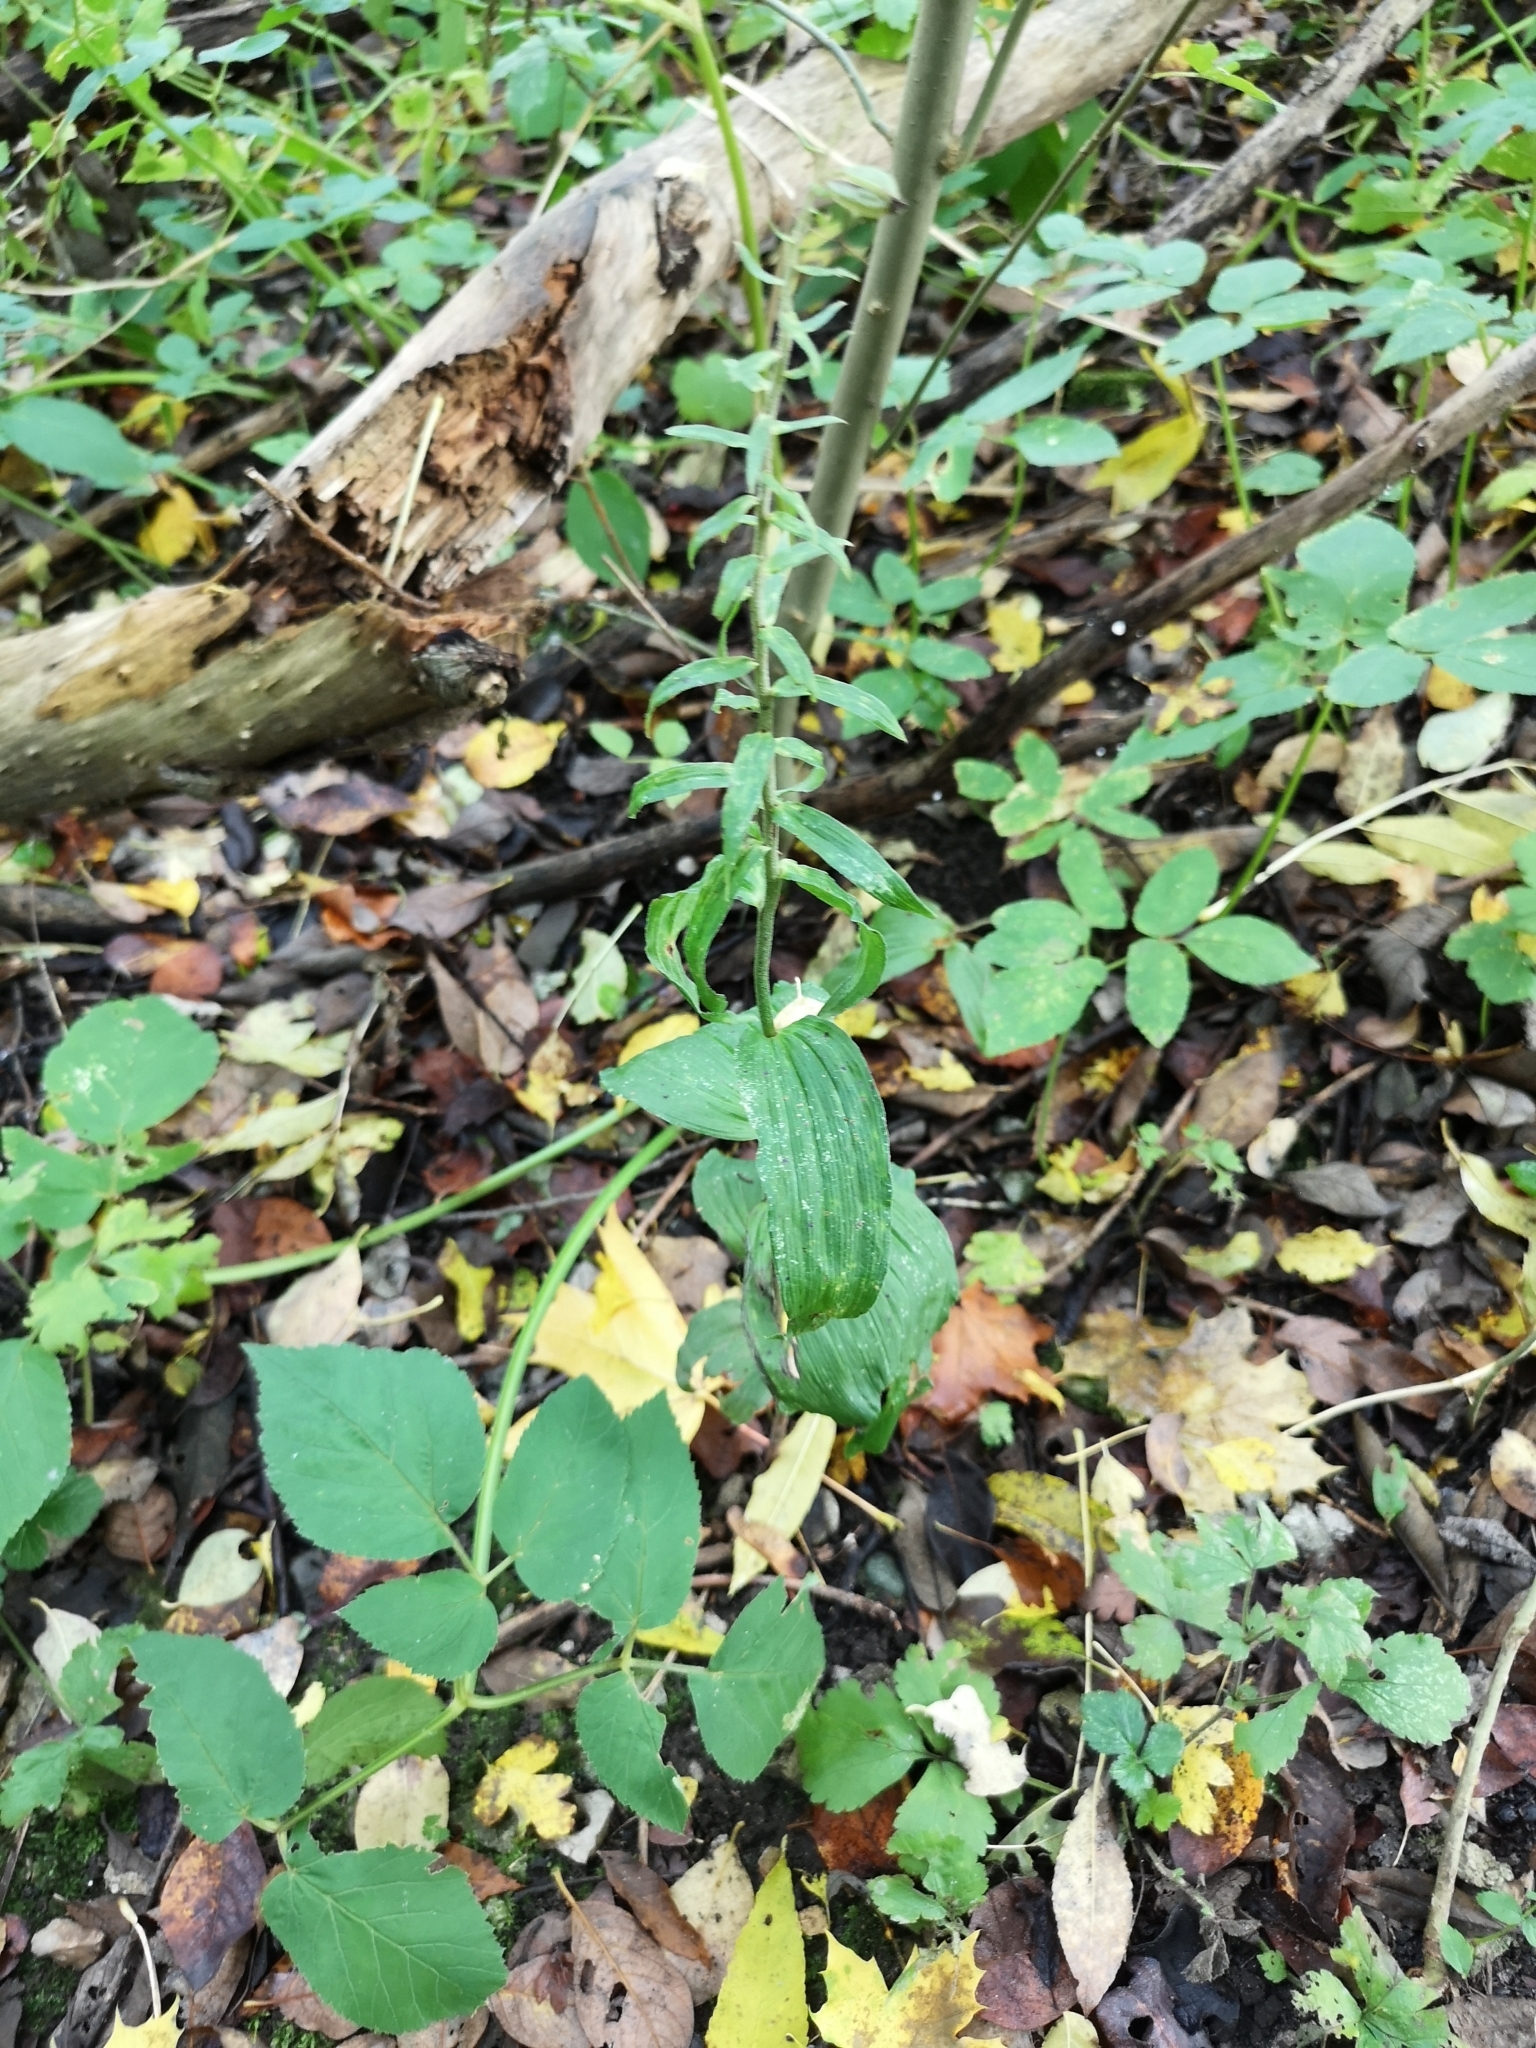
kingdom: Plantae
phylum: Tracheophyta
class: Liliopsida
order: Asparagales
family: Orchidaceae
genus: Epipactis
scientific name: Epipactis helleborine
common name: Broad-leaved helleborine
